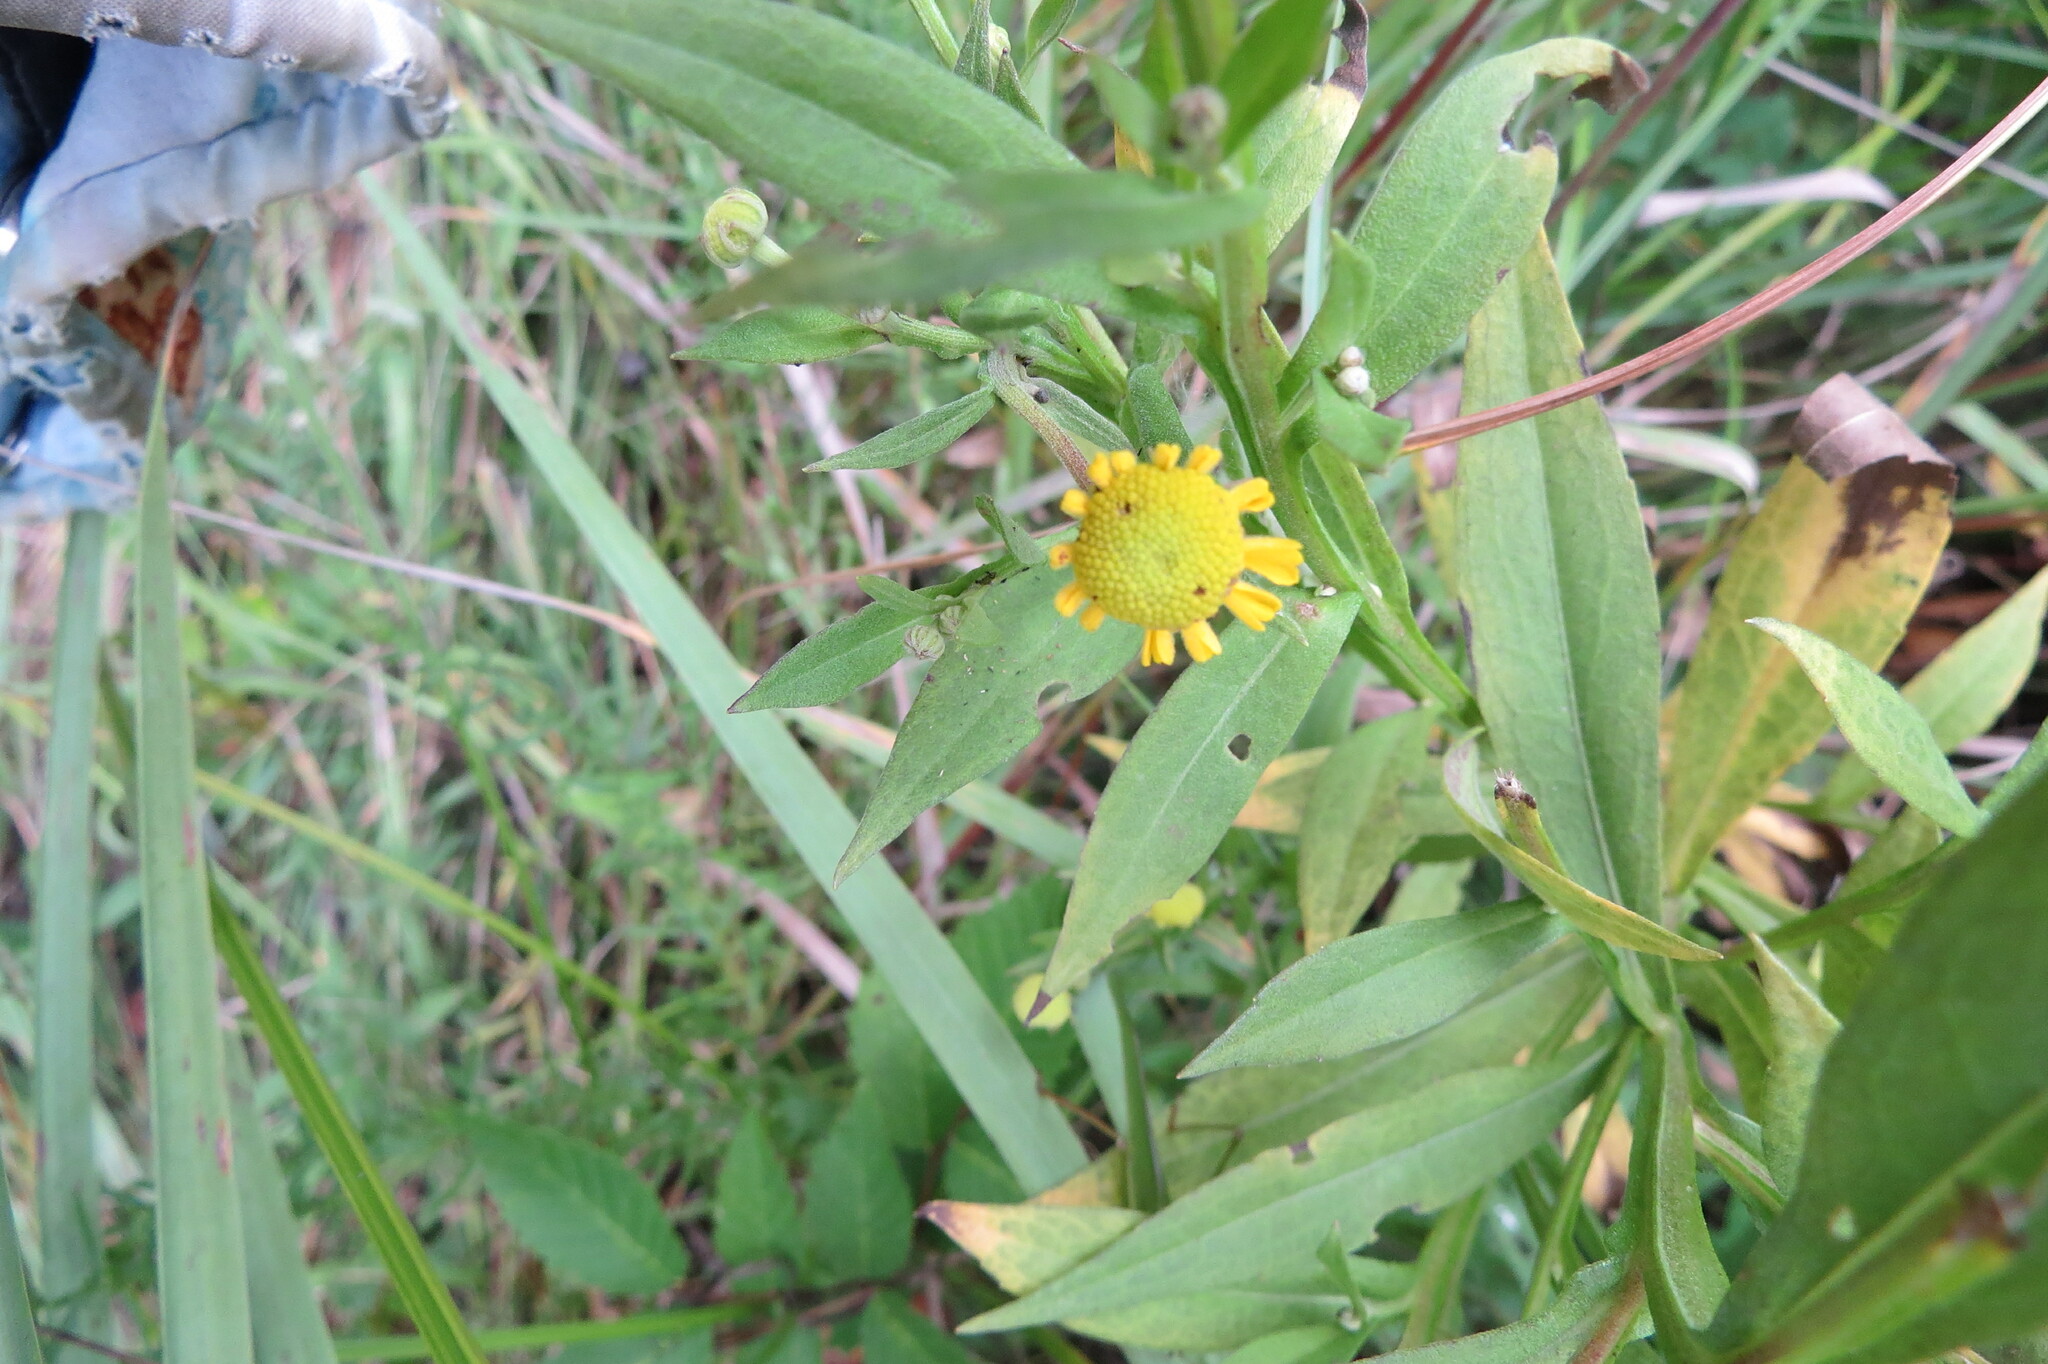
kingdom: Plantae
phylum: Tracheophyta
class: Magnoliopsida
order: Asterales
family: Asteraceae
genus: Helenium
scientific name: Helenium autumnale
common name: Sneezeweed
